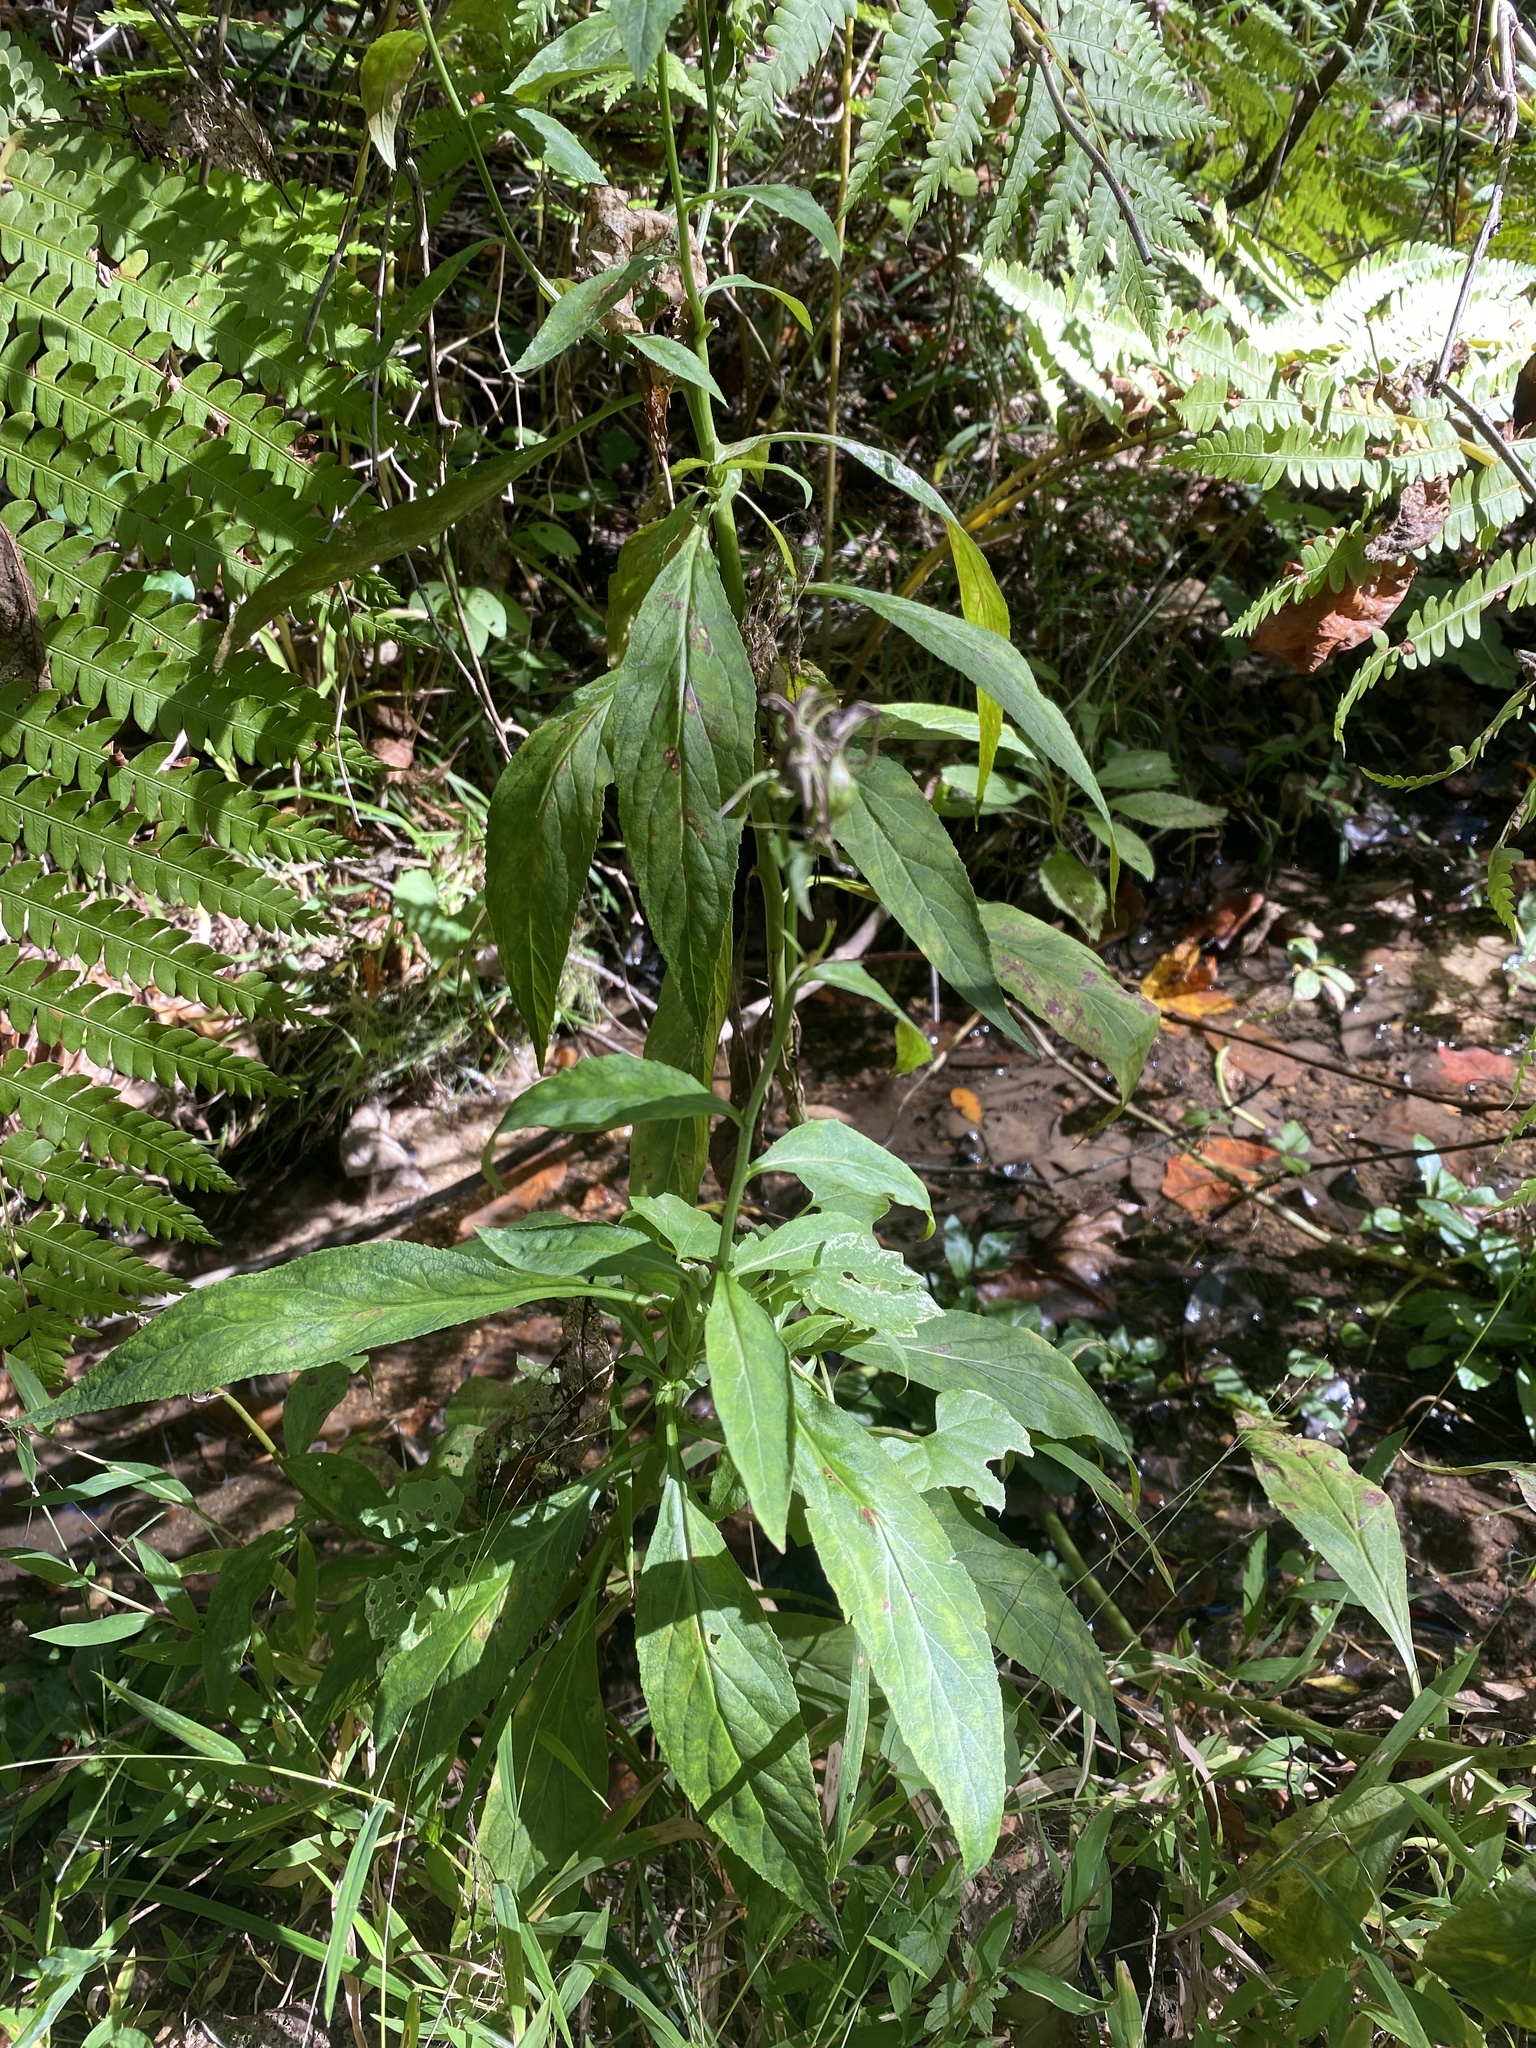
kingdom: Plantae
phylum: Tracheophyta
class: Magnoliopsida
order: Asterales
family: Campanulaceae
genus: Lobelia
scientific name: Lobelia cardinalis
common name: Cardinal flower
